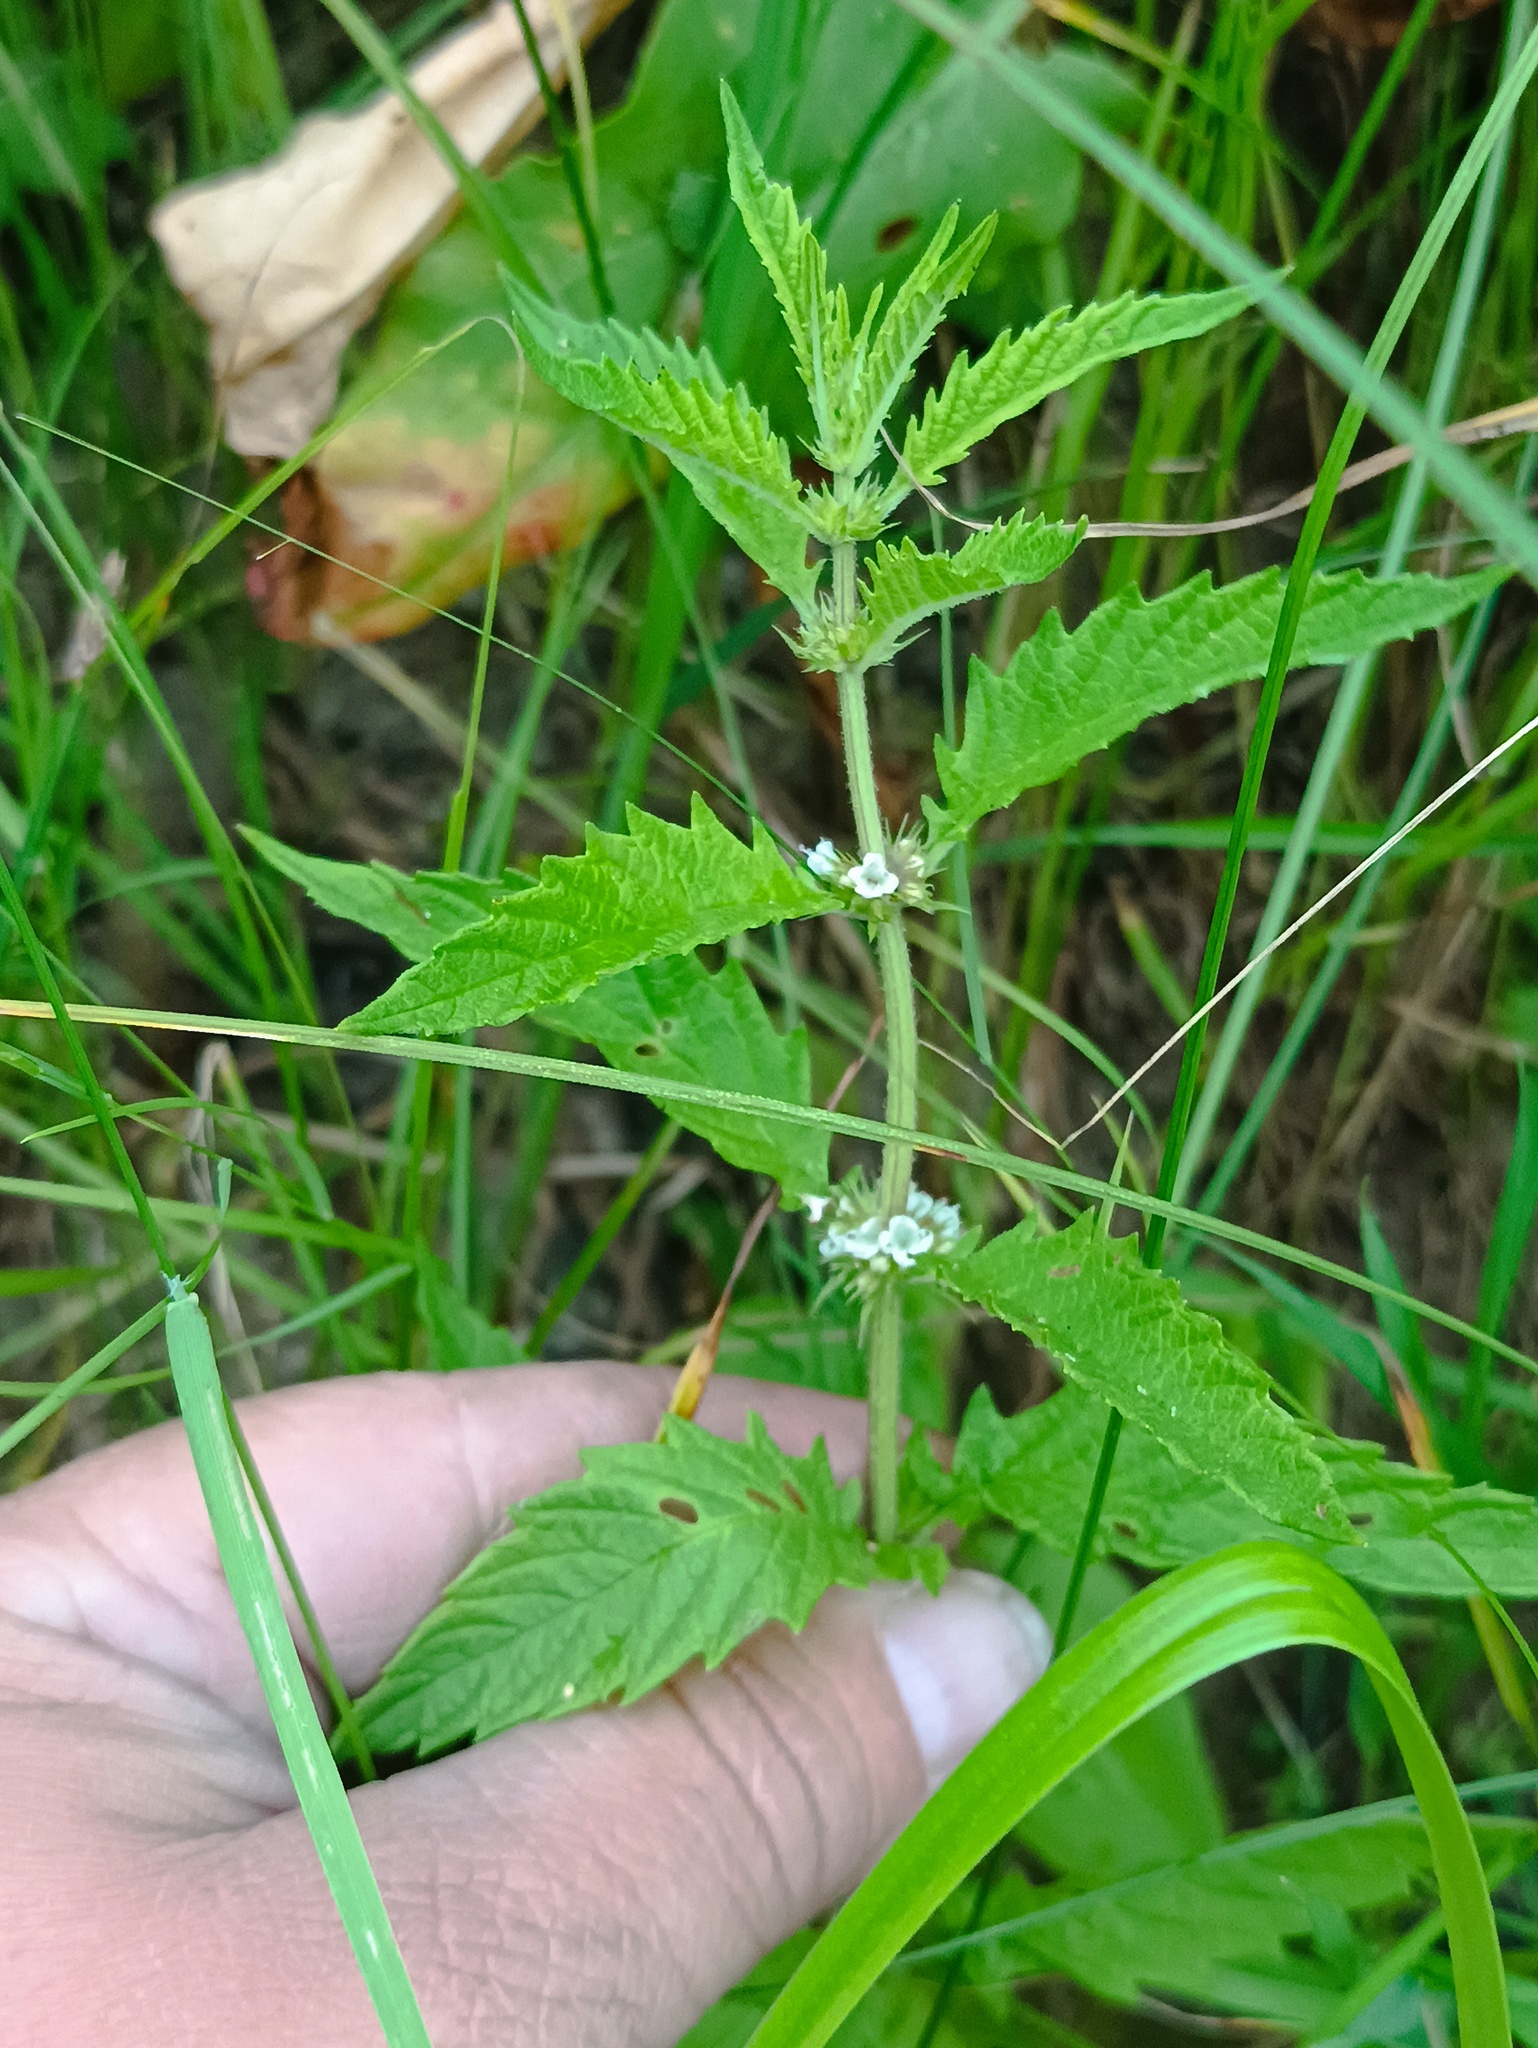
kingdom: Plantae
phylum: Tracheophyta
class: Magnoliopsida
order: Lamiales
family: Lamiaceae
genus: Lycopus
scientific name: Lycopus europaeus
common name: European bugleweed
